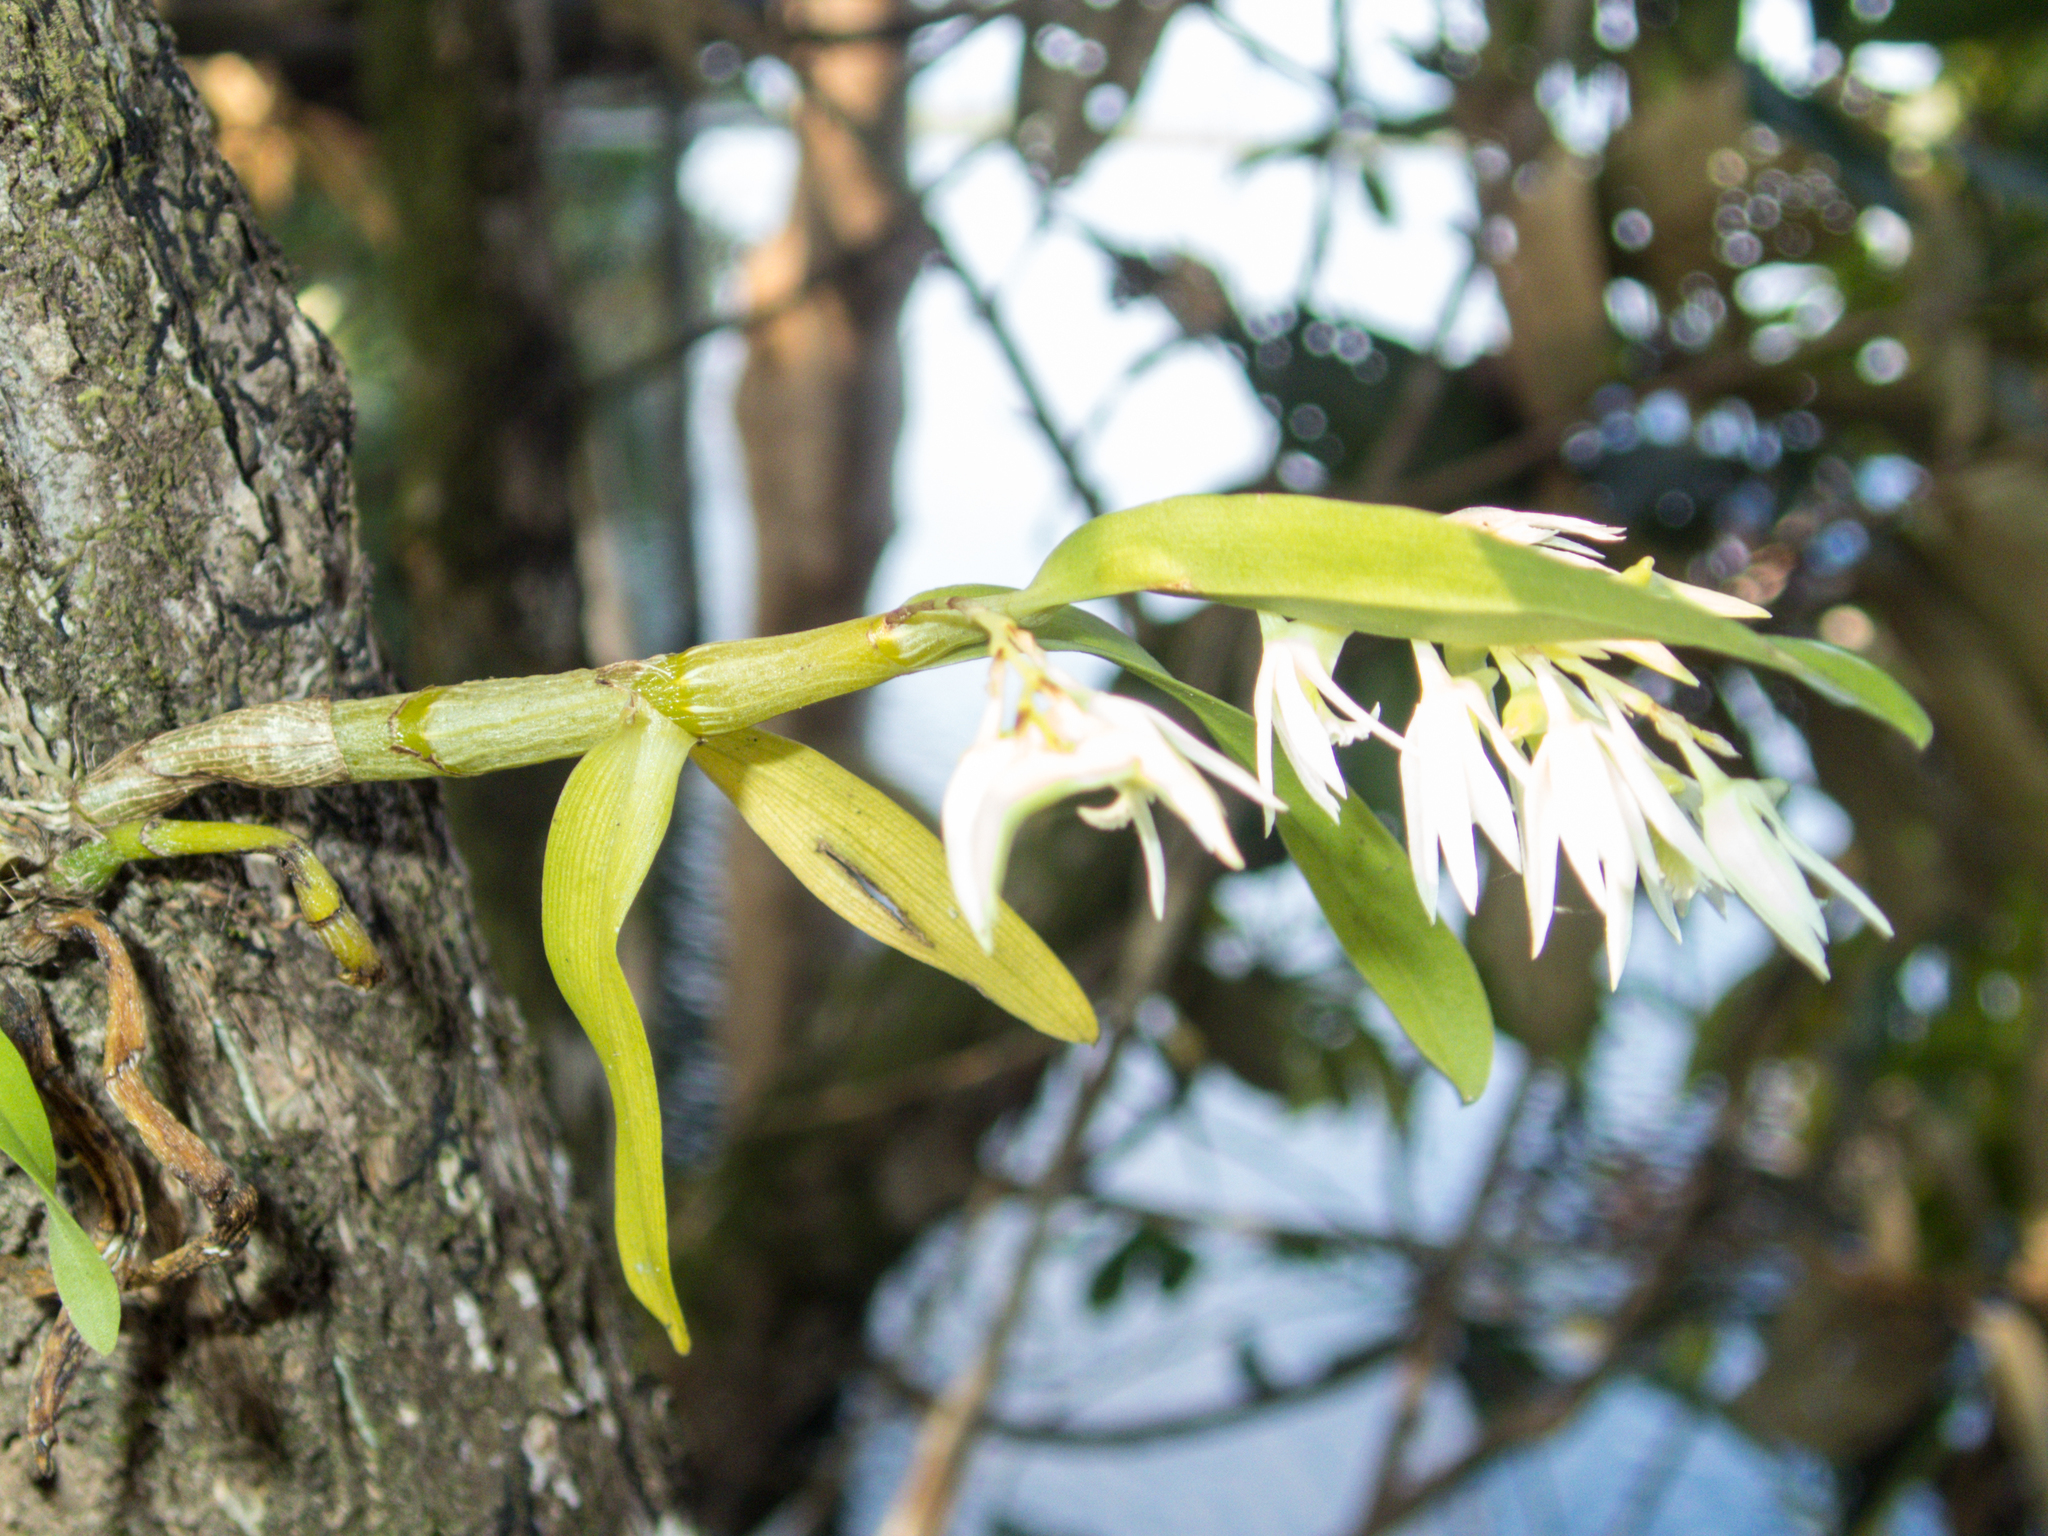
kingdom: Plantae
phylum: Tracheophyta
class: Liliopsida
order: Asparagales
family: Orchidaceae
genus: Dendrobium
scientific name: Dendrobium kratense
